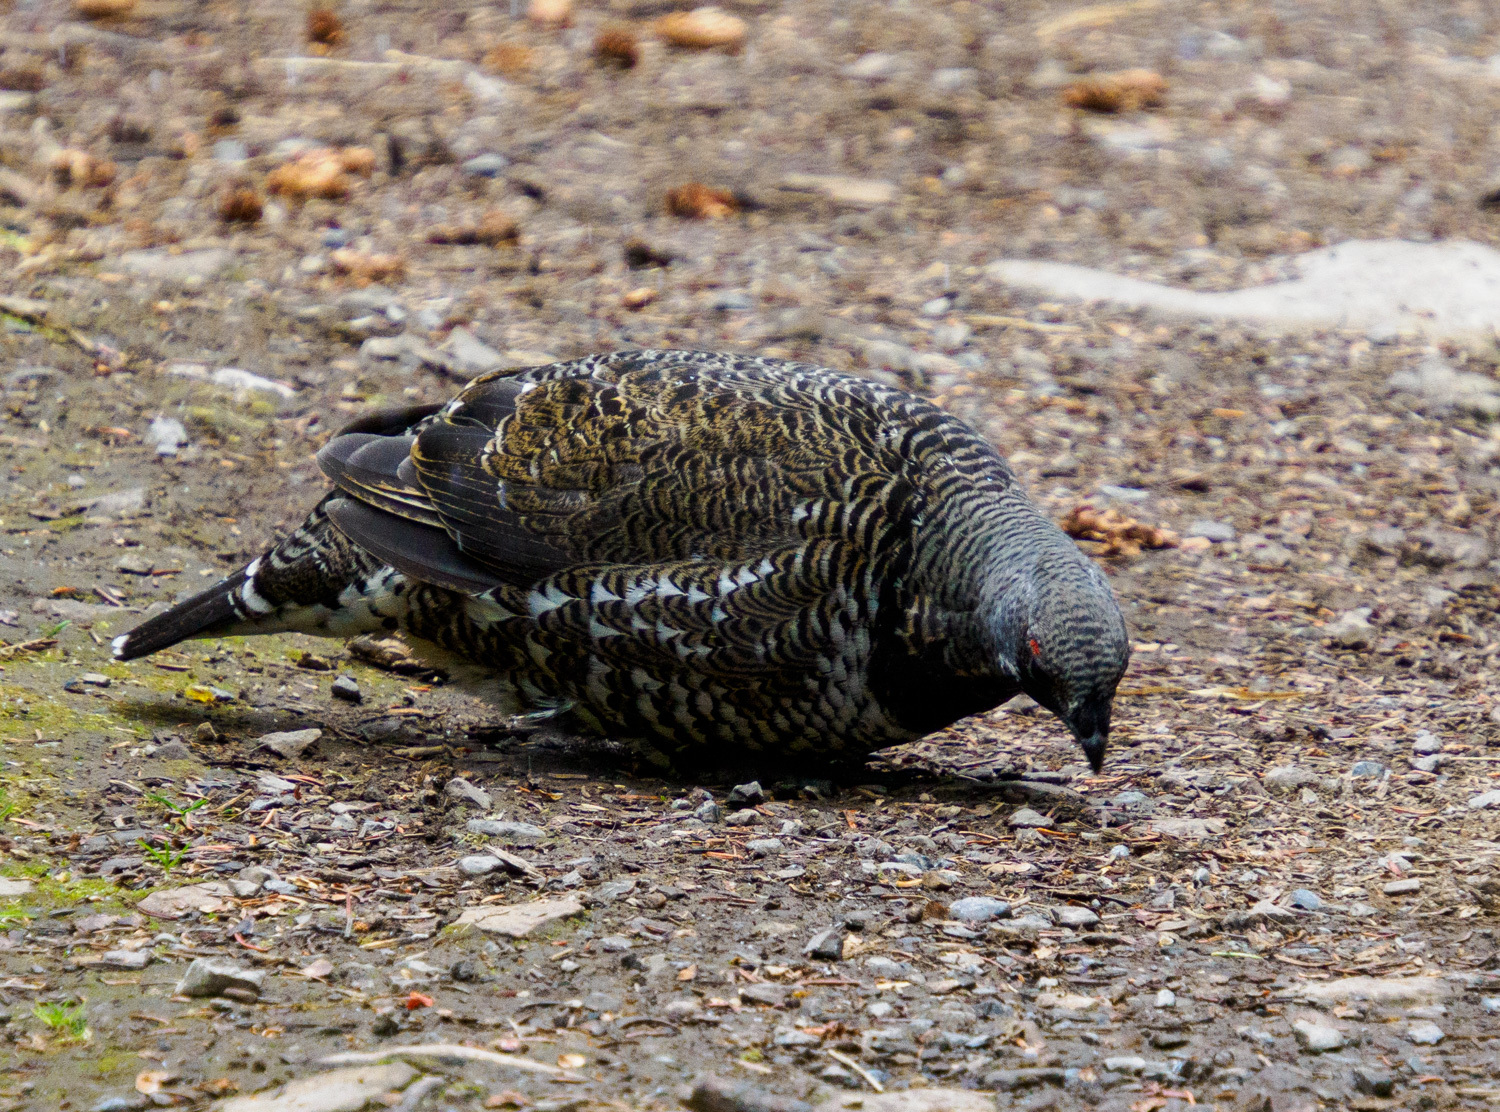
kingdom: Animalia
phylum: Chordata
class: Aves
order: Galliformes
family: Phasianidae
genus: Canachites
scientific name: Canachites canadensis
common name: Spruce grouse
